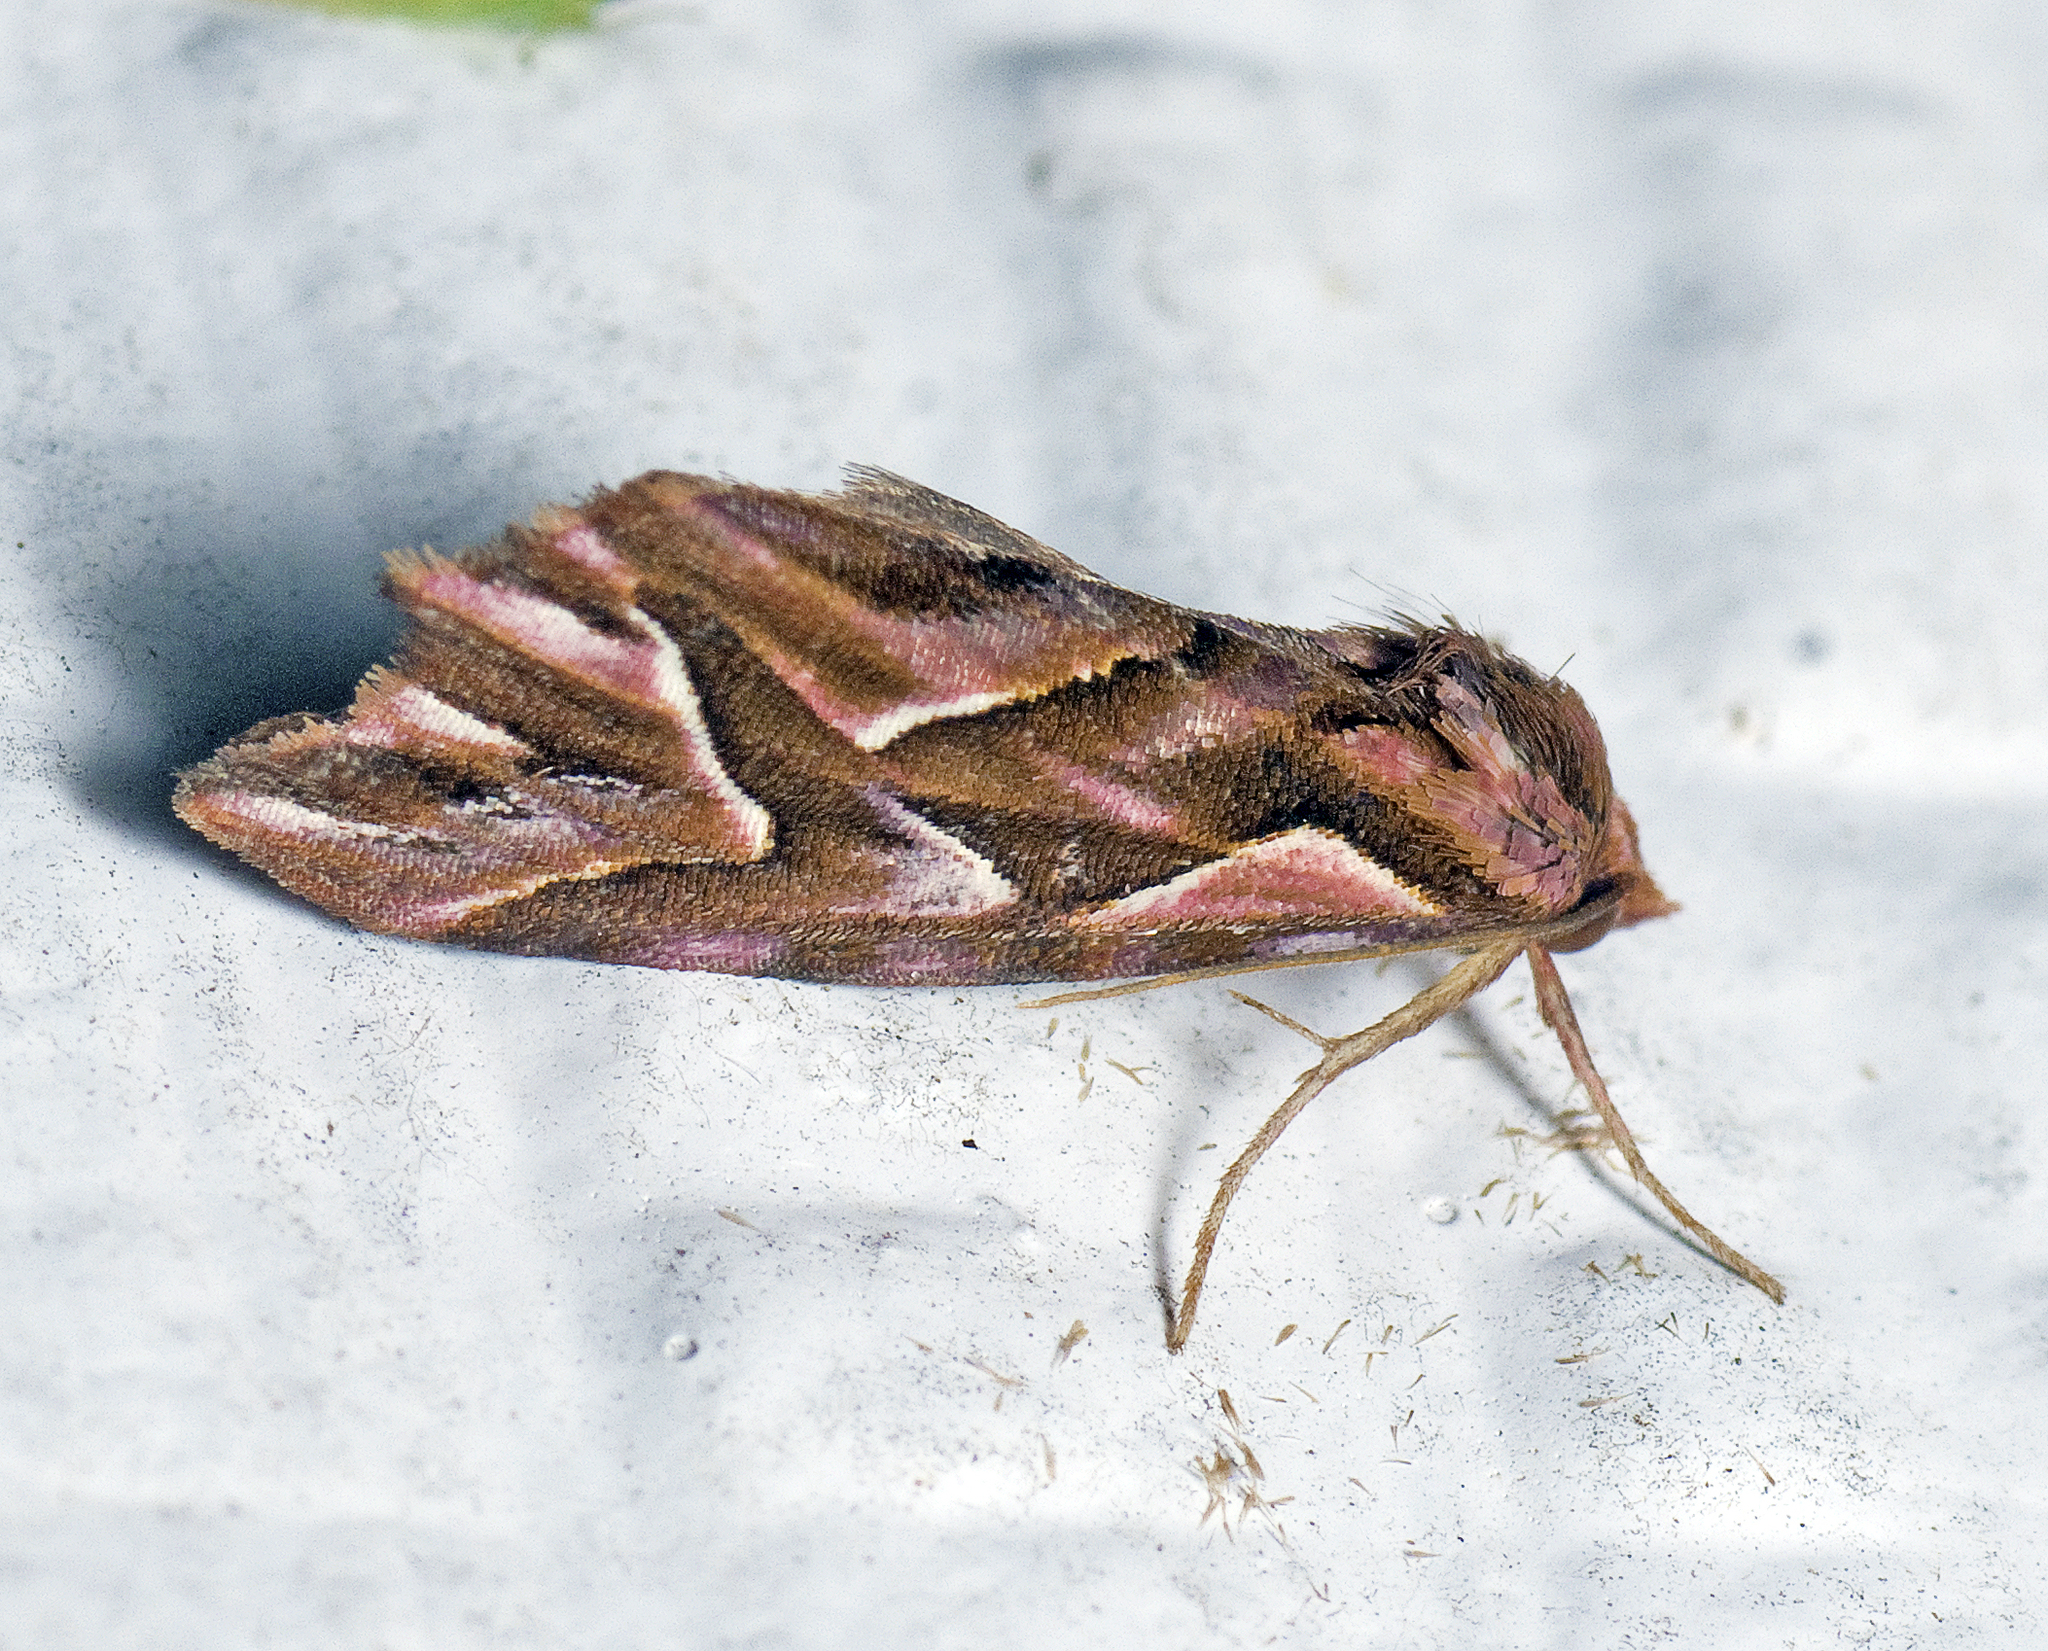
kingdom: Animalia
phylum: Arthropoda
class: Insecta
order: Lepidoptera
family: Noctuidae
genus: Clytoscopa
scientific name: Clytoscopa iorrhoda
